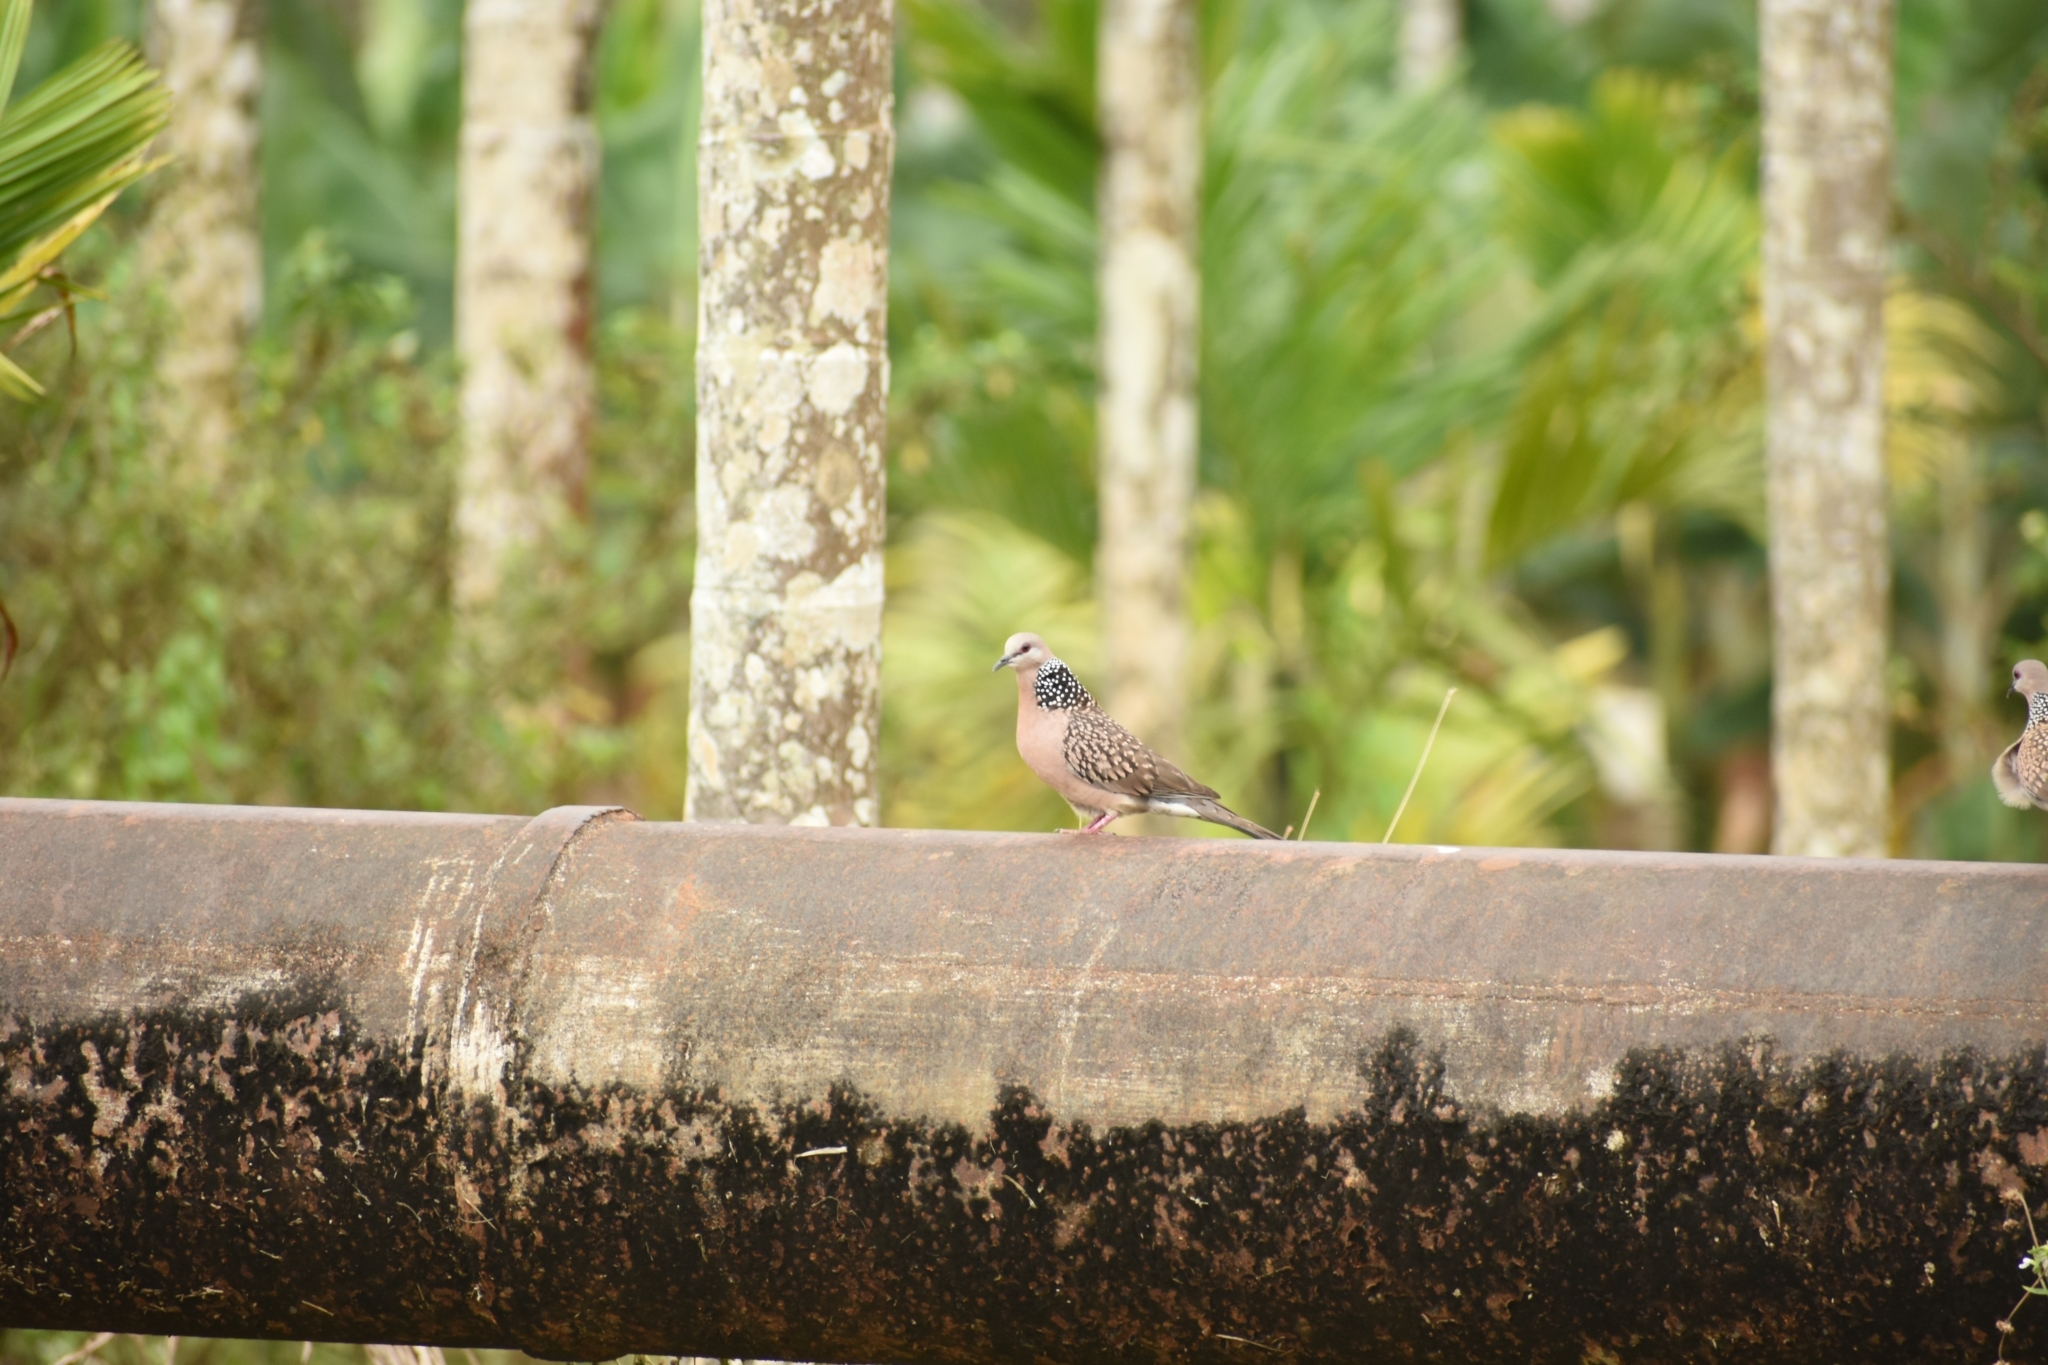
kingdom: Animalia
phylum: Chordata
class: Aves
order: Columbiformes
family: Columbidae
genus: Spilopelia
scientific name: Spilopelia chinensis
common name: Spotted dove
